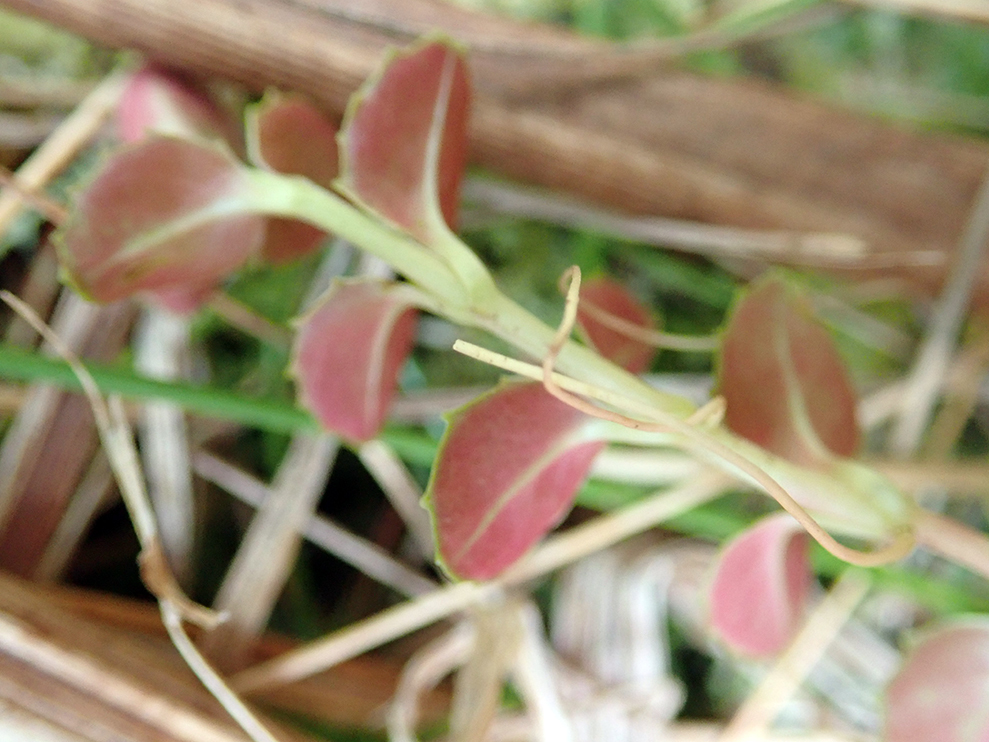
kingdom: Plantae
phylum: Tracheophyta
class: Magnoliopsida
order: Myrtales
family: Onagraceae
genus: Epilobium
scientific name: Epilobium rotundifolium
